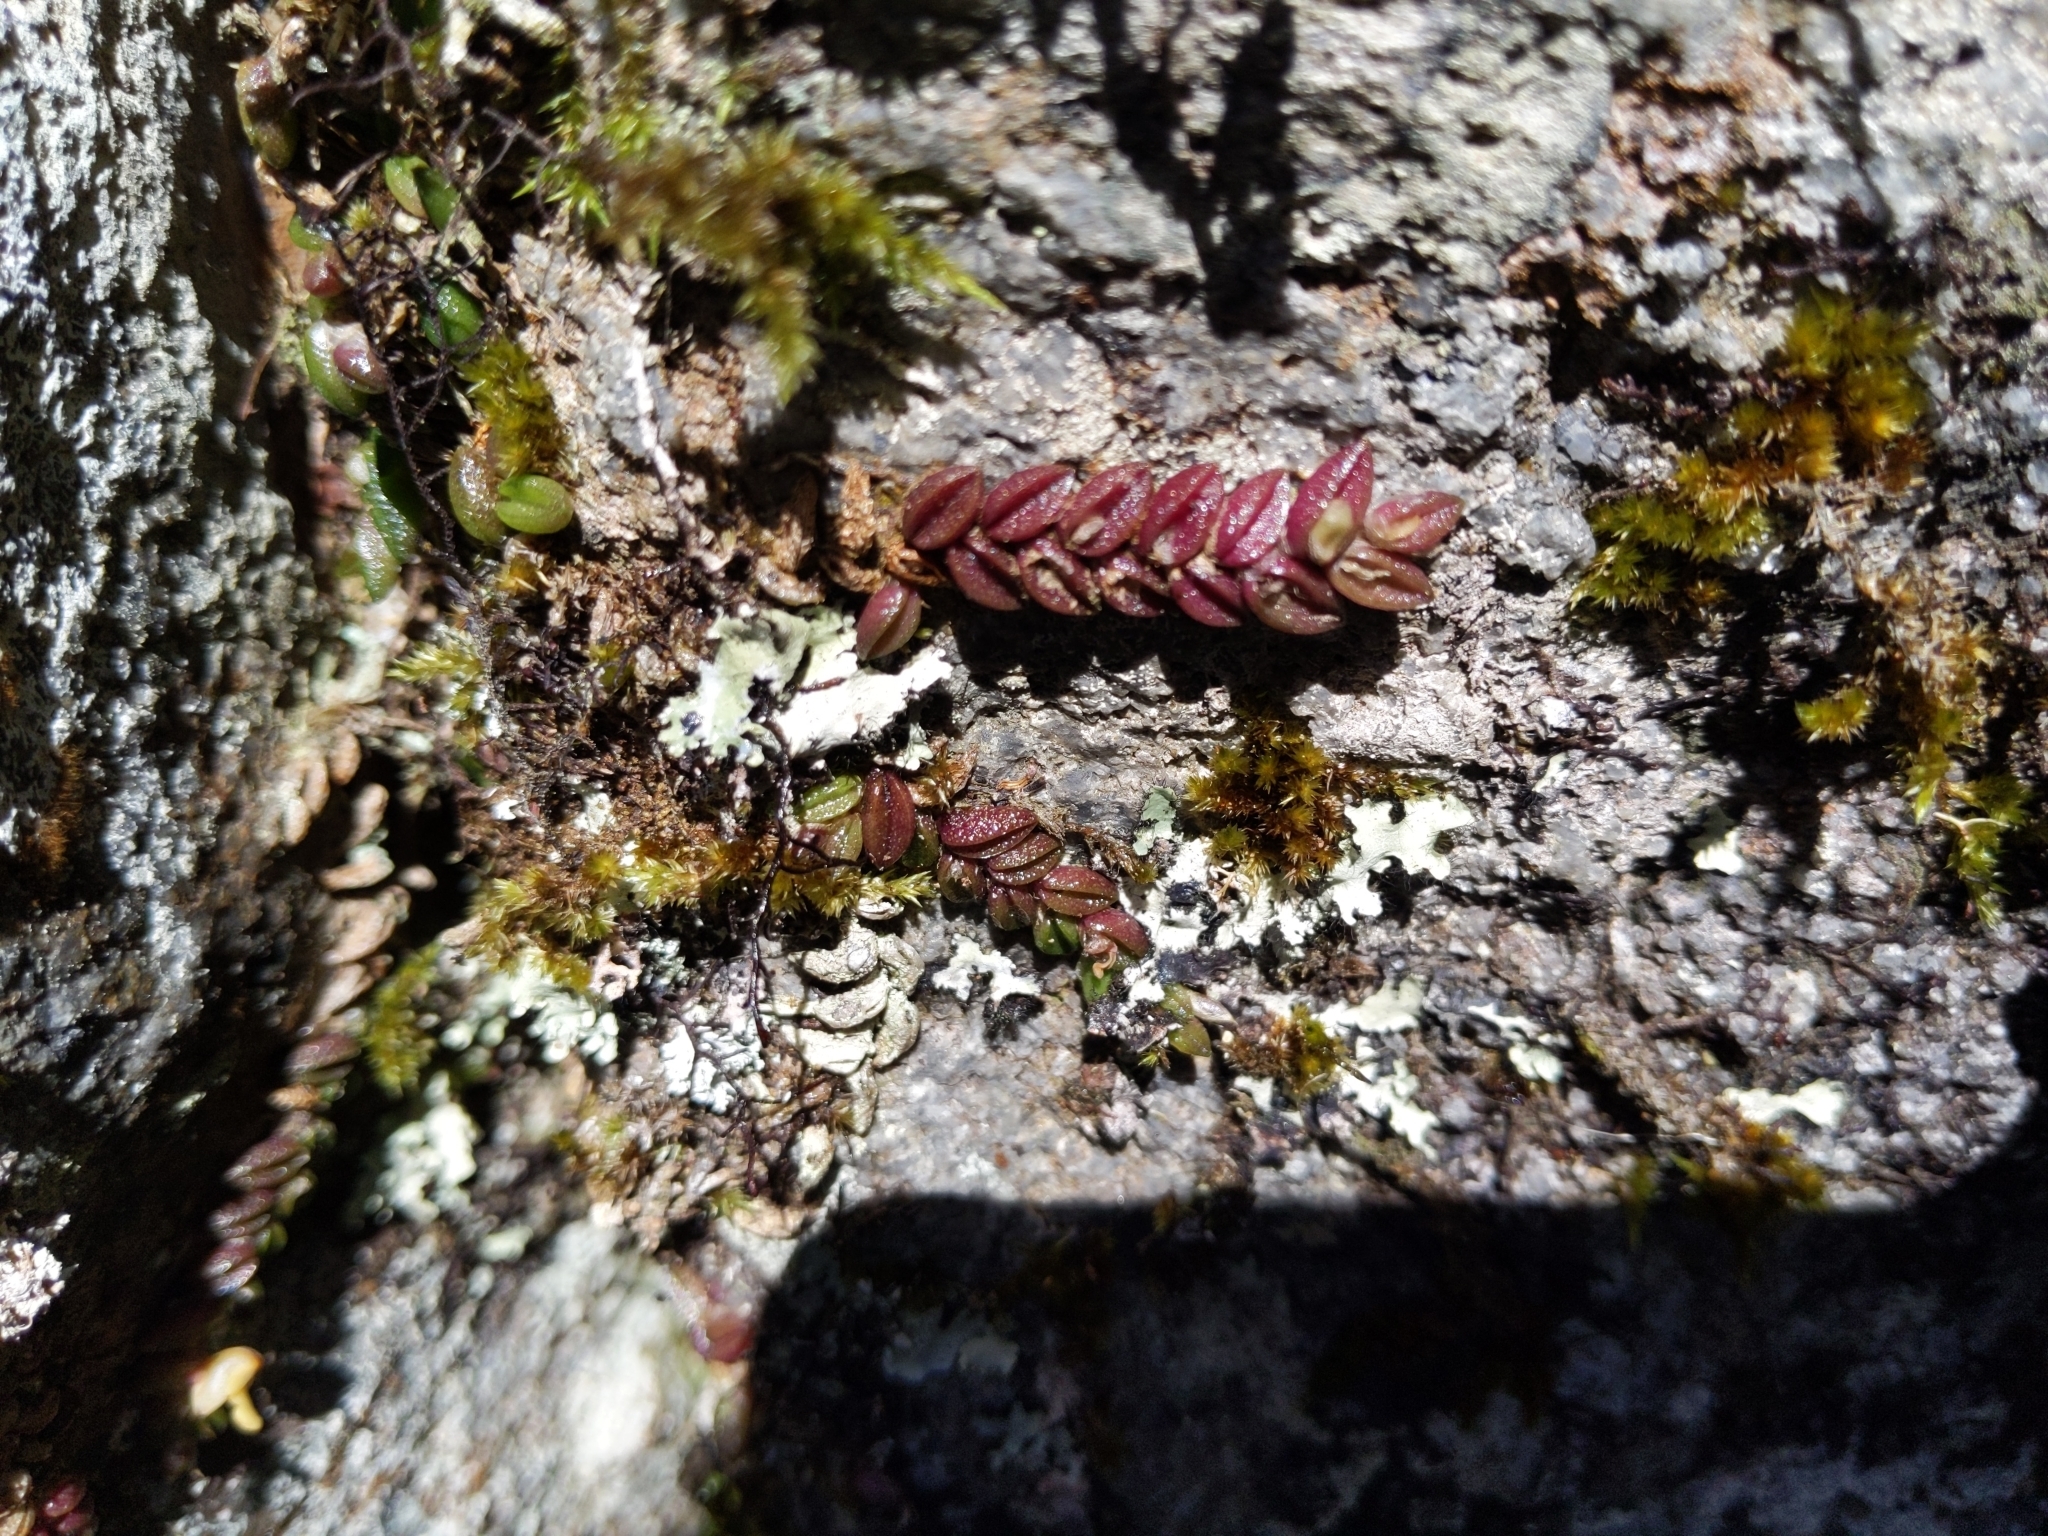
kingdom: Plantae
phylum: Tracheophyta
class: Liliopsida
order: Asparagales
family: Orchidaceae
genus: Dendrobium
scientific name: Dendrobium toressae
